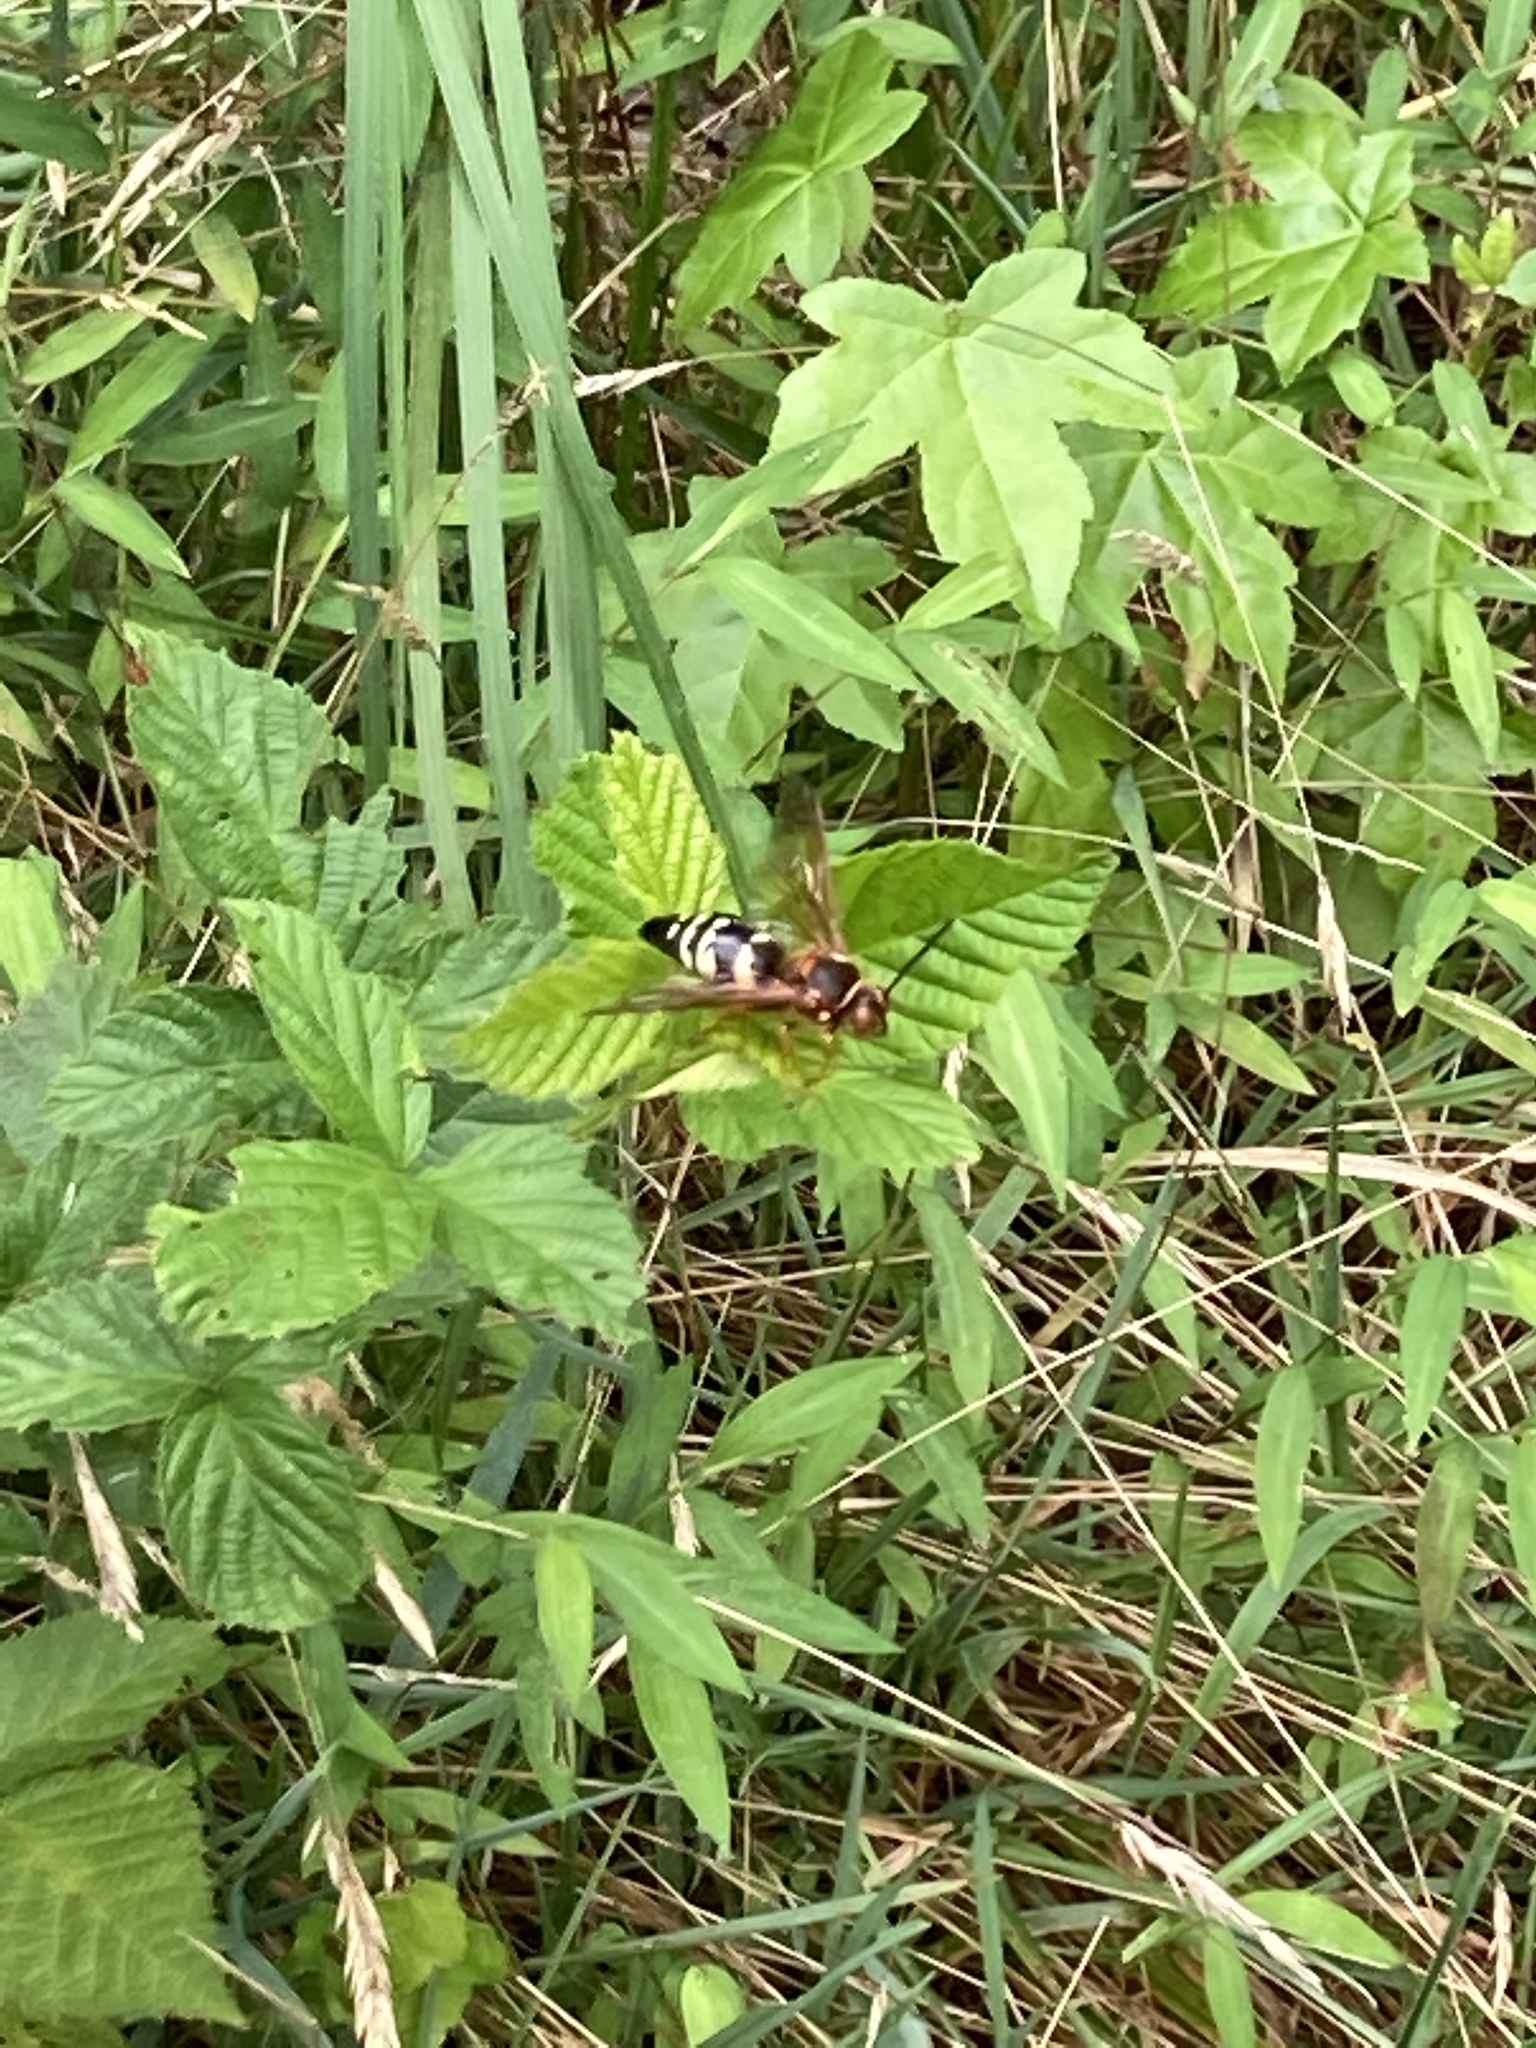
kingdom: Animalia
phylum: Arthropoda
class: Insecta
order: Hymenoptera
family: Crabronidae
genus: Sphecius
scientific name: Sphecius speciosus
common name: Cicada killer
